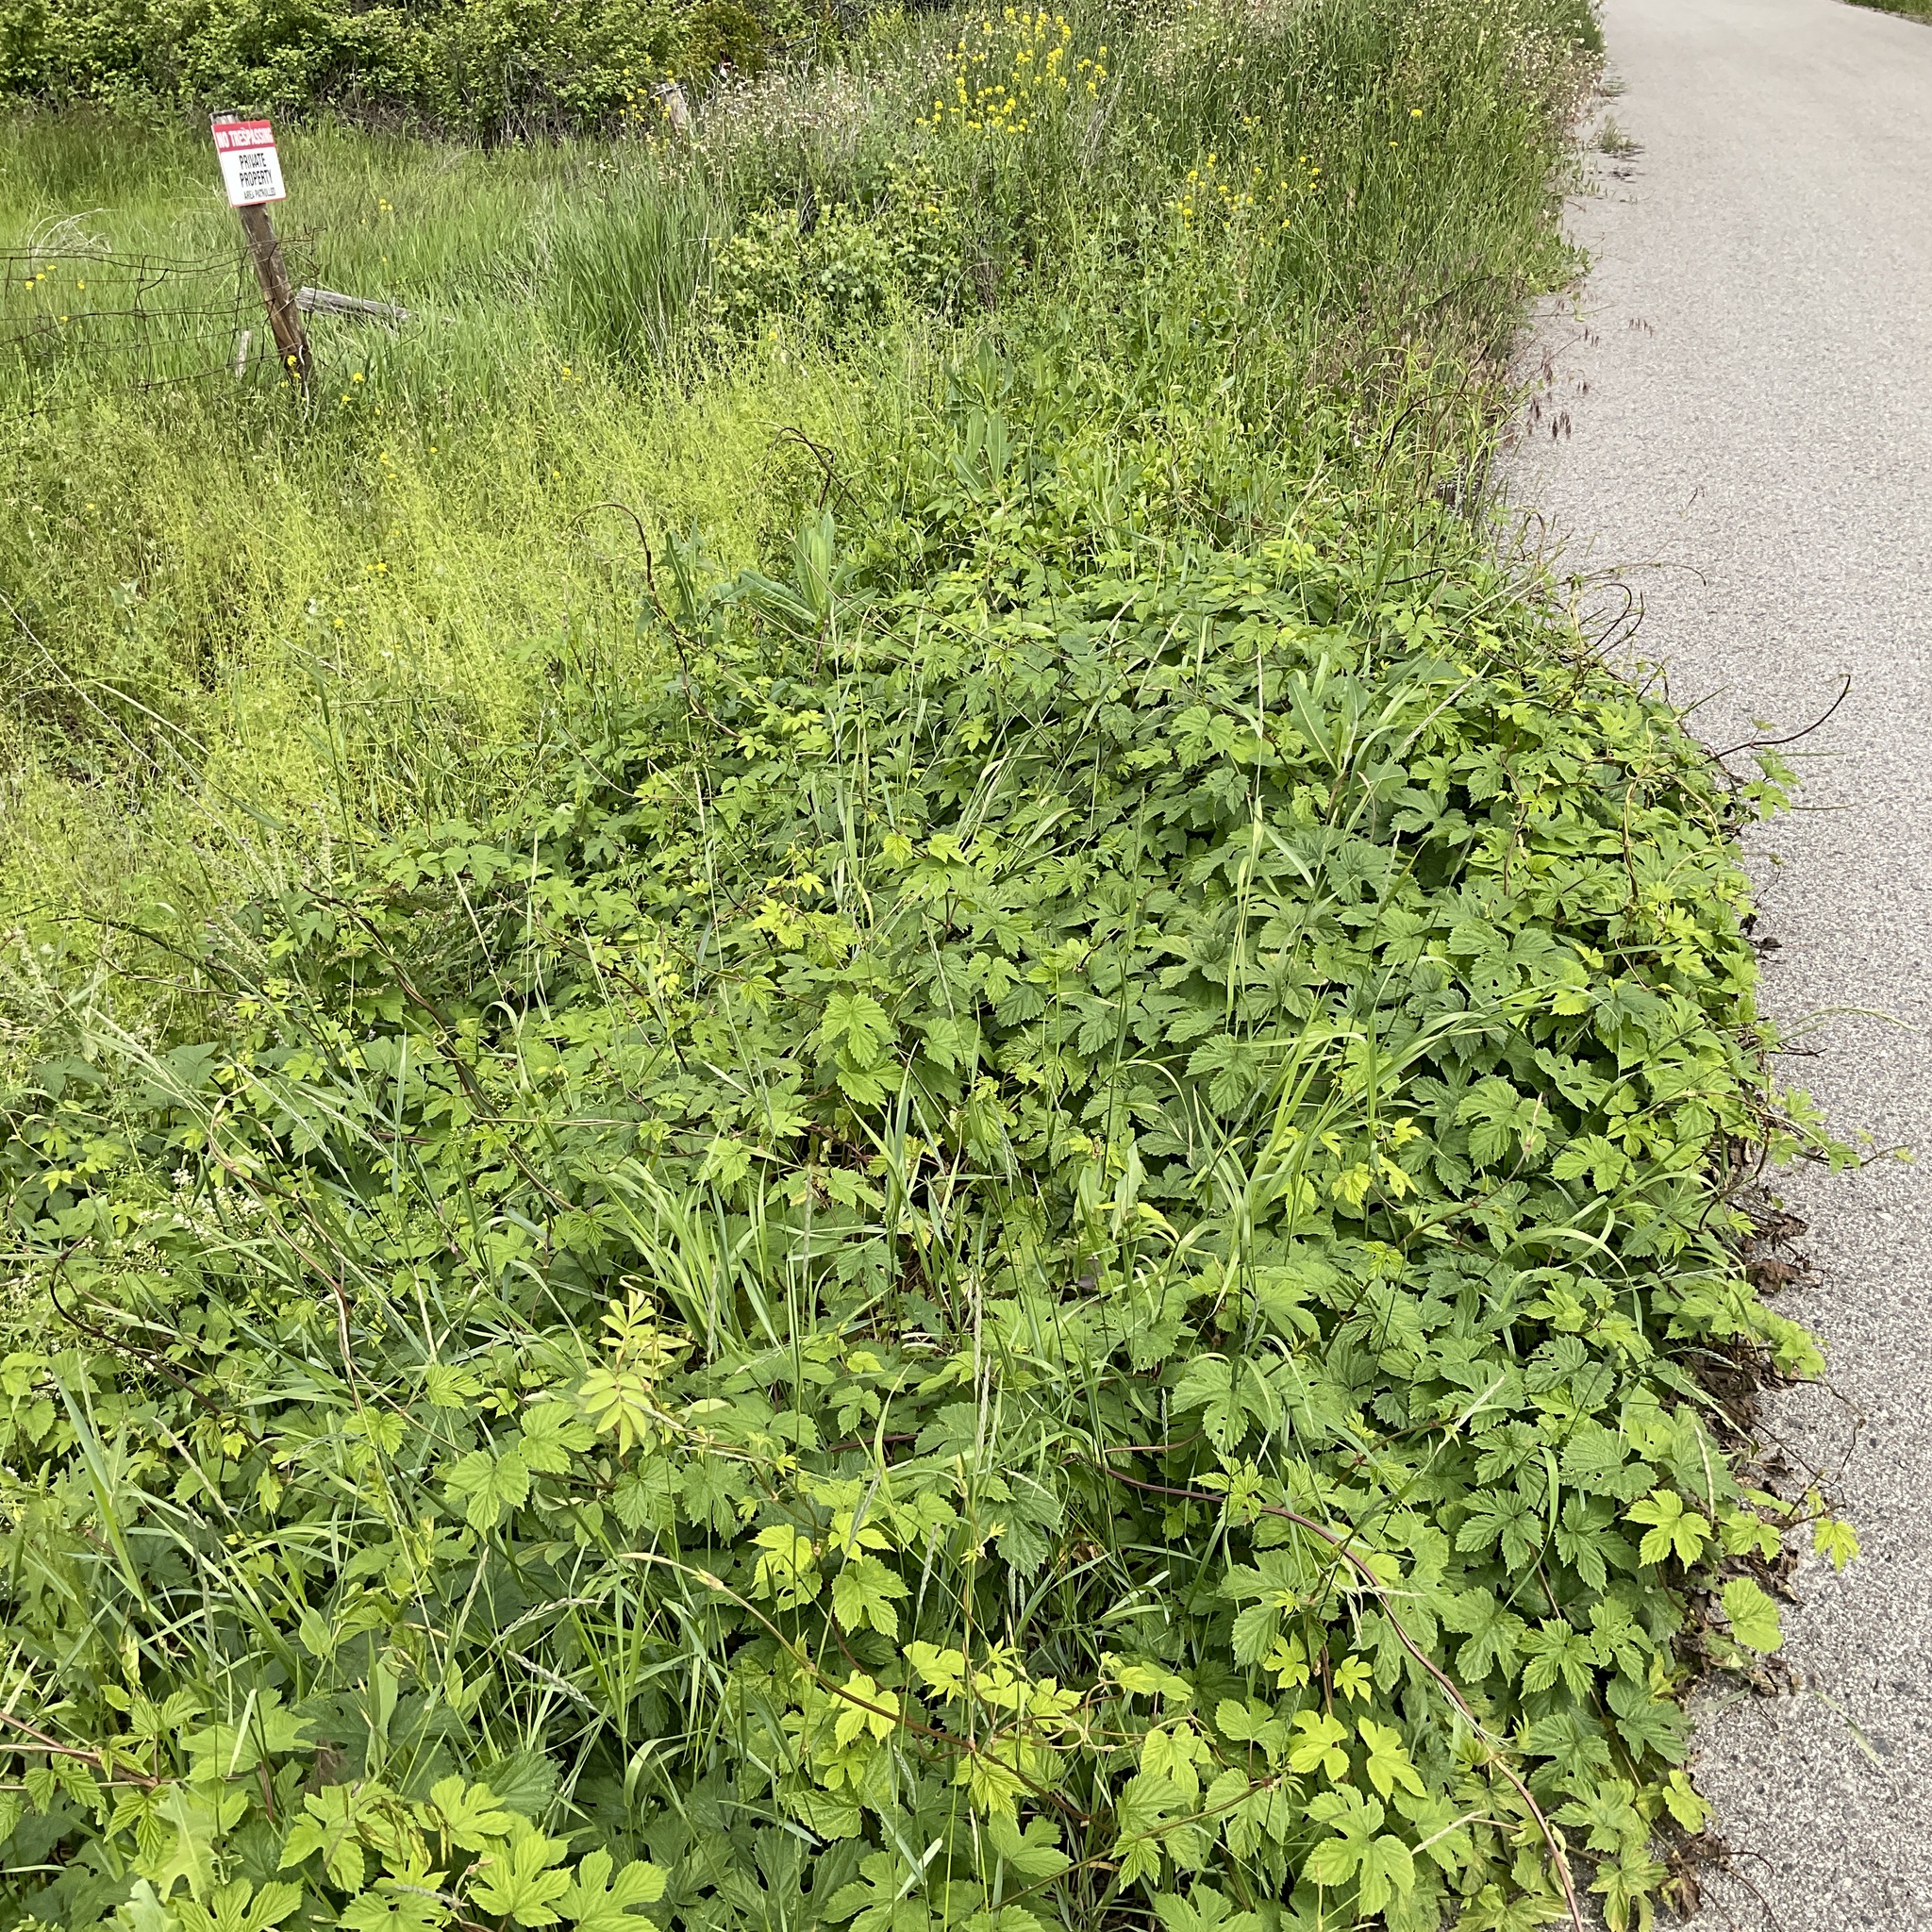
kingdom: Plantae
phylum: Tracheophyta
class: Magnoliopsida
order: Rosales
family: Cannabaceae
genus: Humulus
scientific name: Humulus lupulus
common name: Hop
